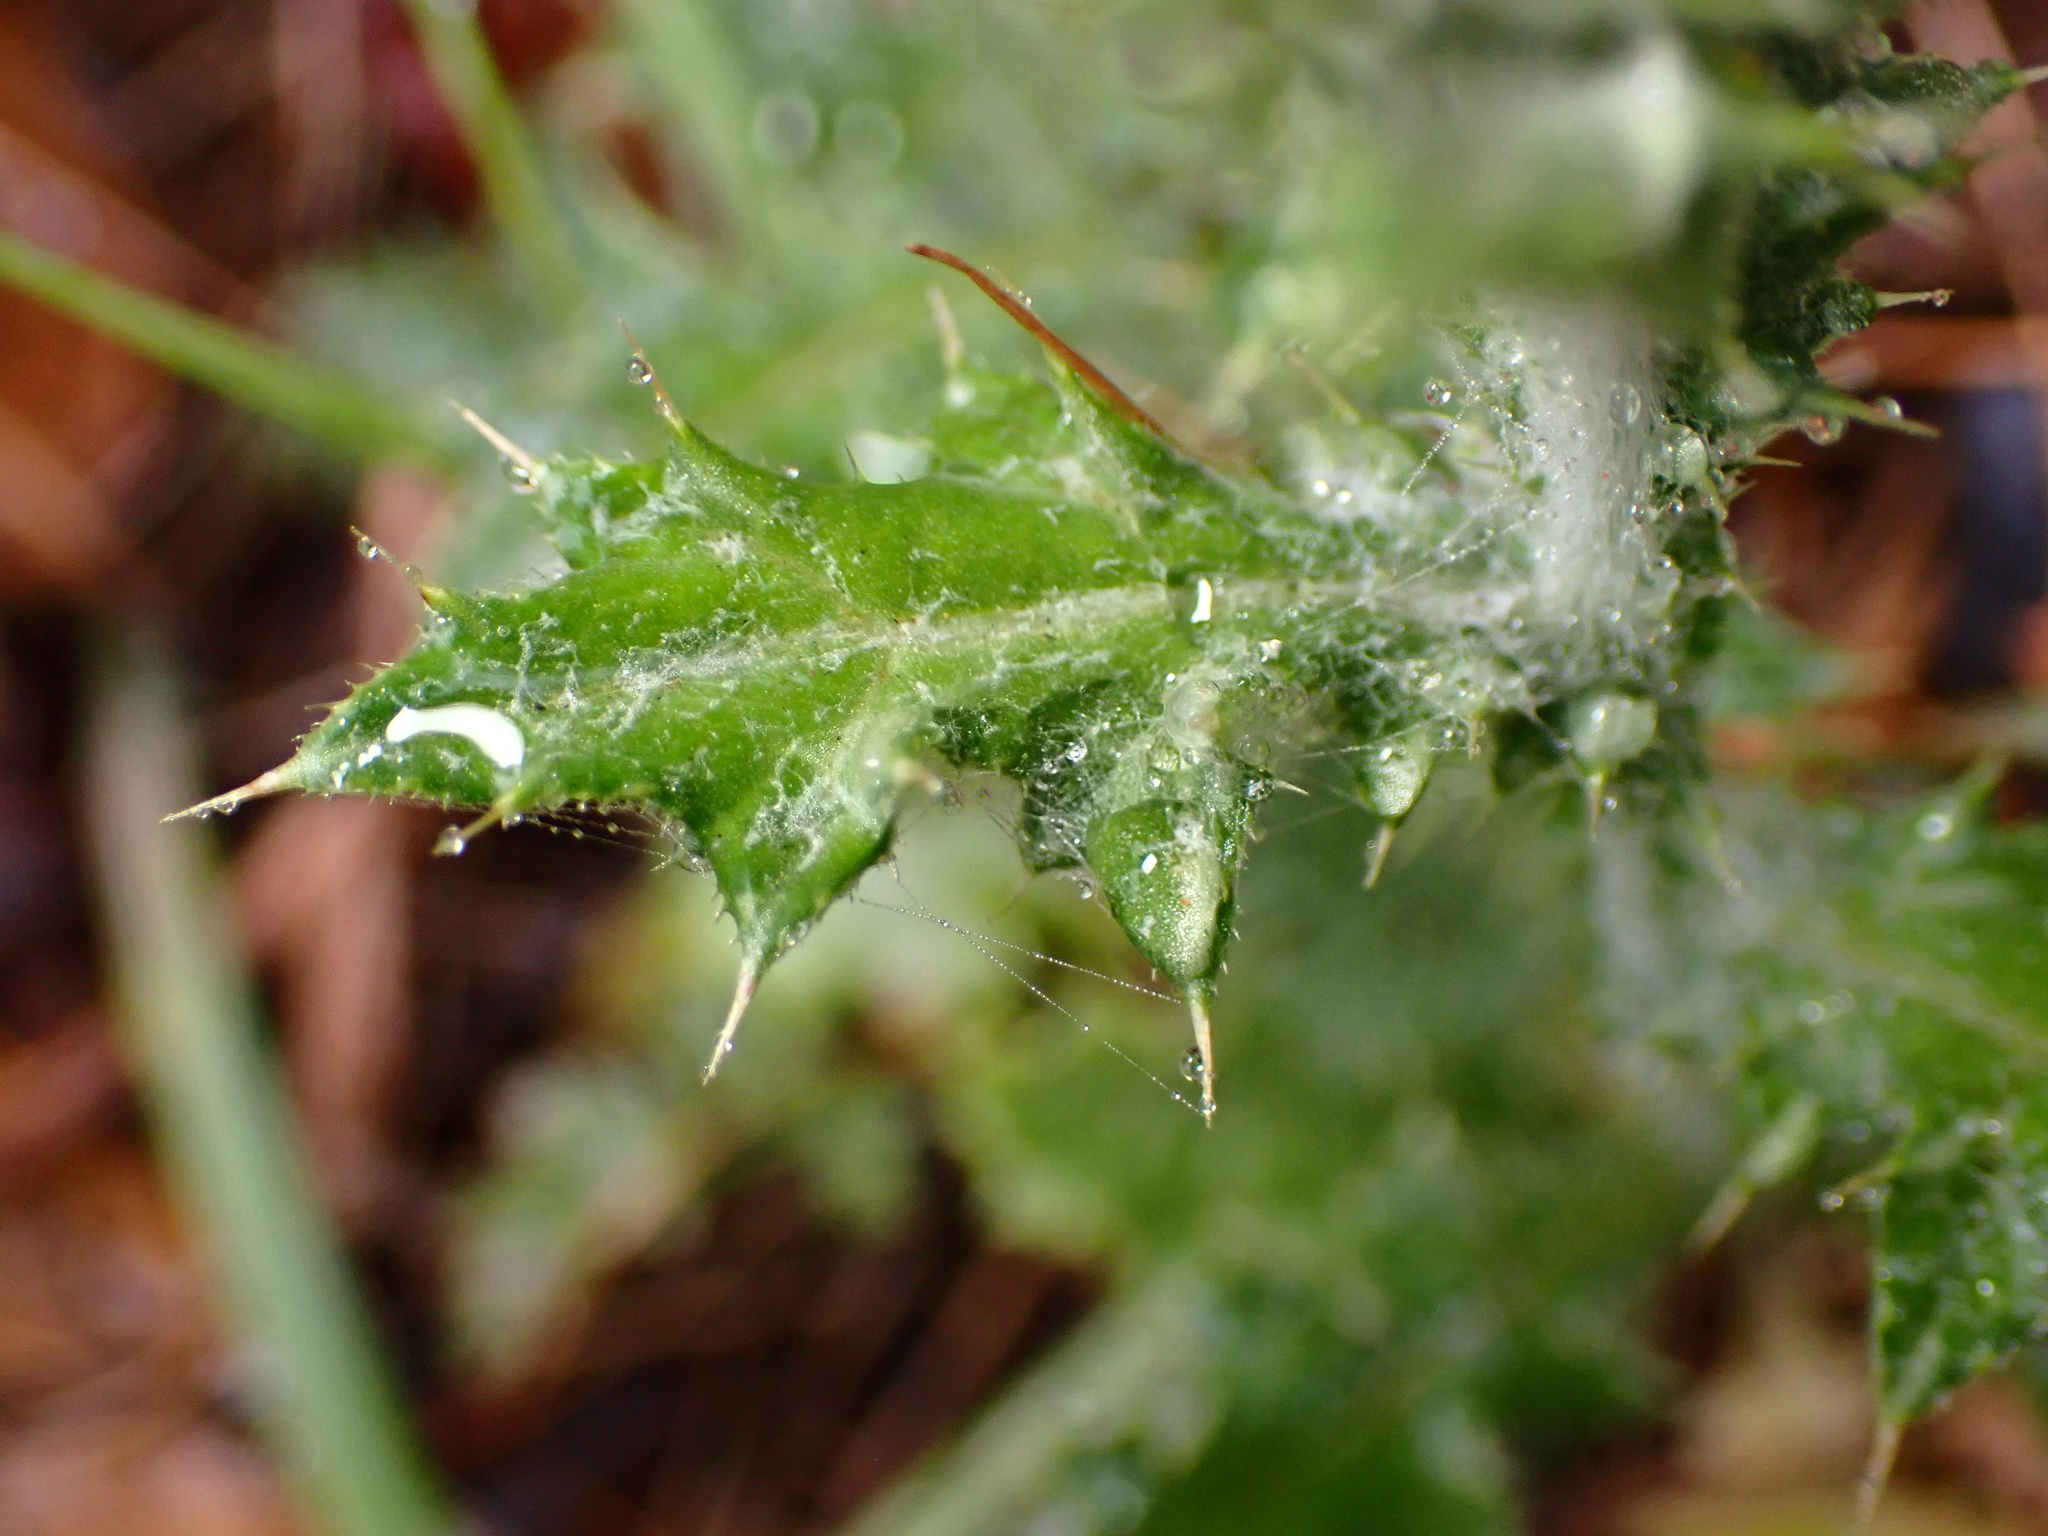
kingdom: Plantae
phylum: Tracheophyta
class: Magnoliopsida
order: Asterales
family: Asteraceae
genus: Carduus
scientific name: Carduus pycnocephalus
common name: Plymouth thistle
